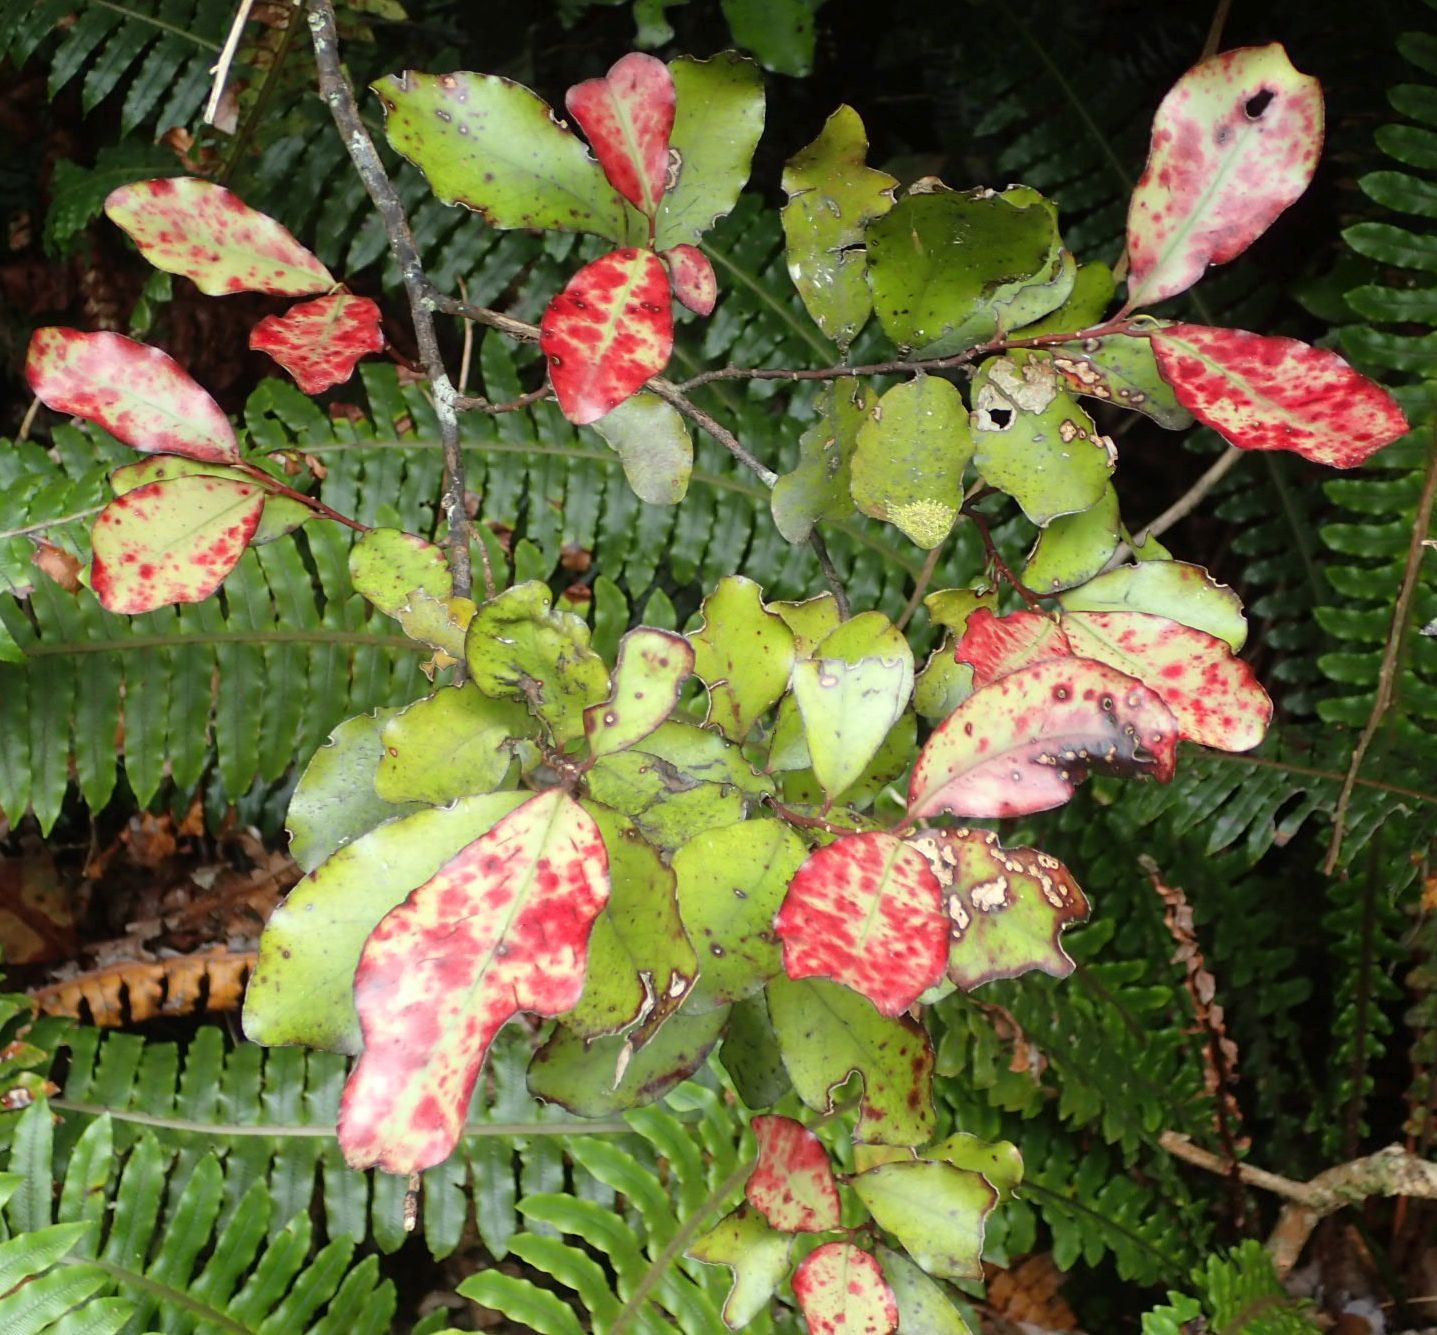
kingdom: Plantae
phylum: Tracheophyta
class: Magnoliopsida
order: Canellales
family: Winteraceae
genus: Pseudowintera
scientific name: Pseudowintera colorata
